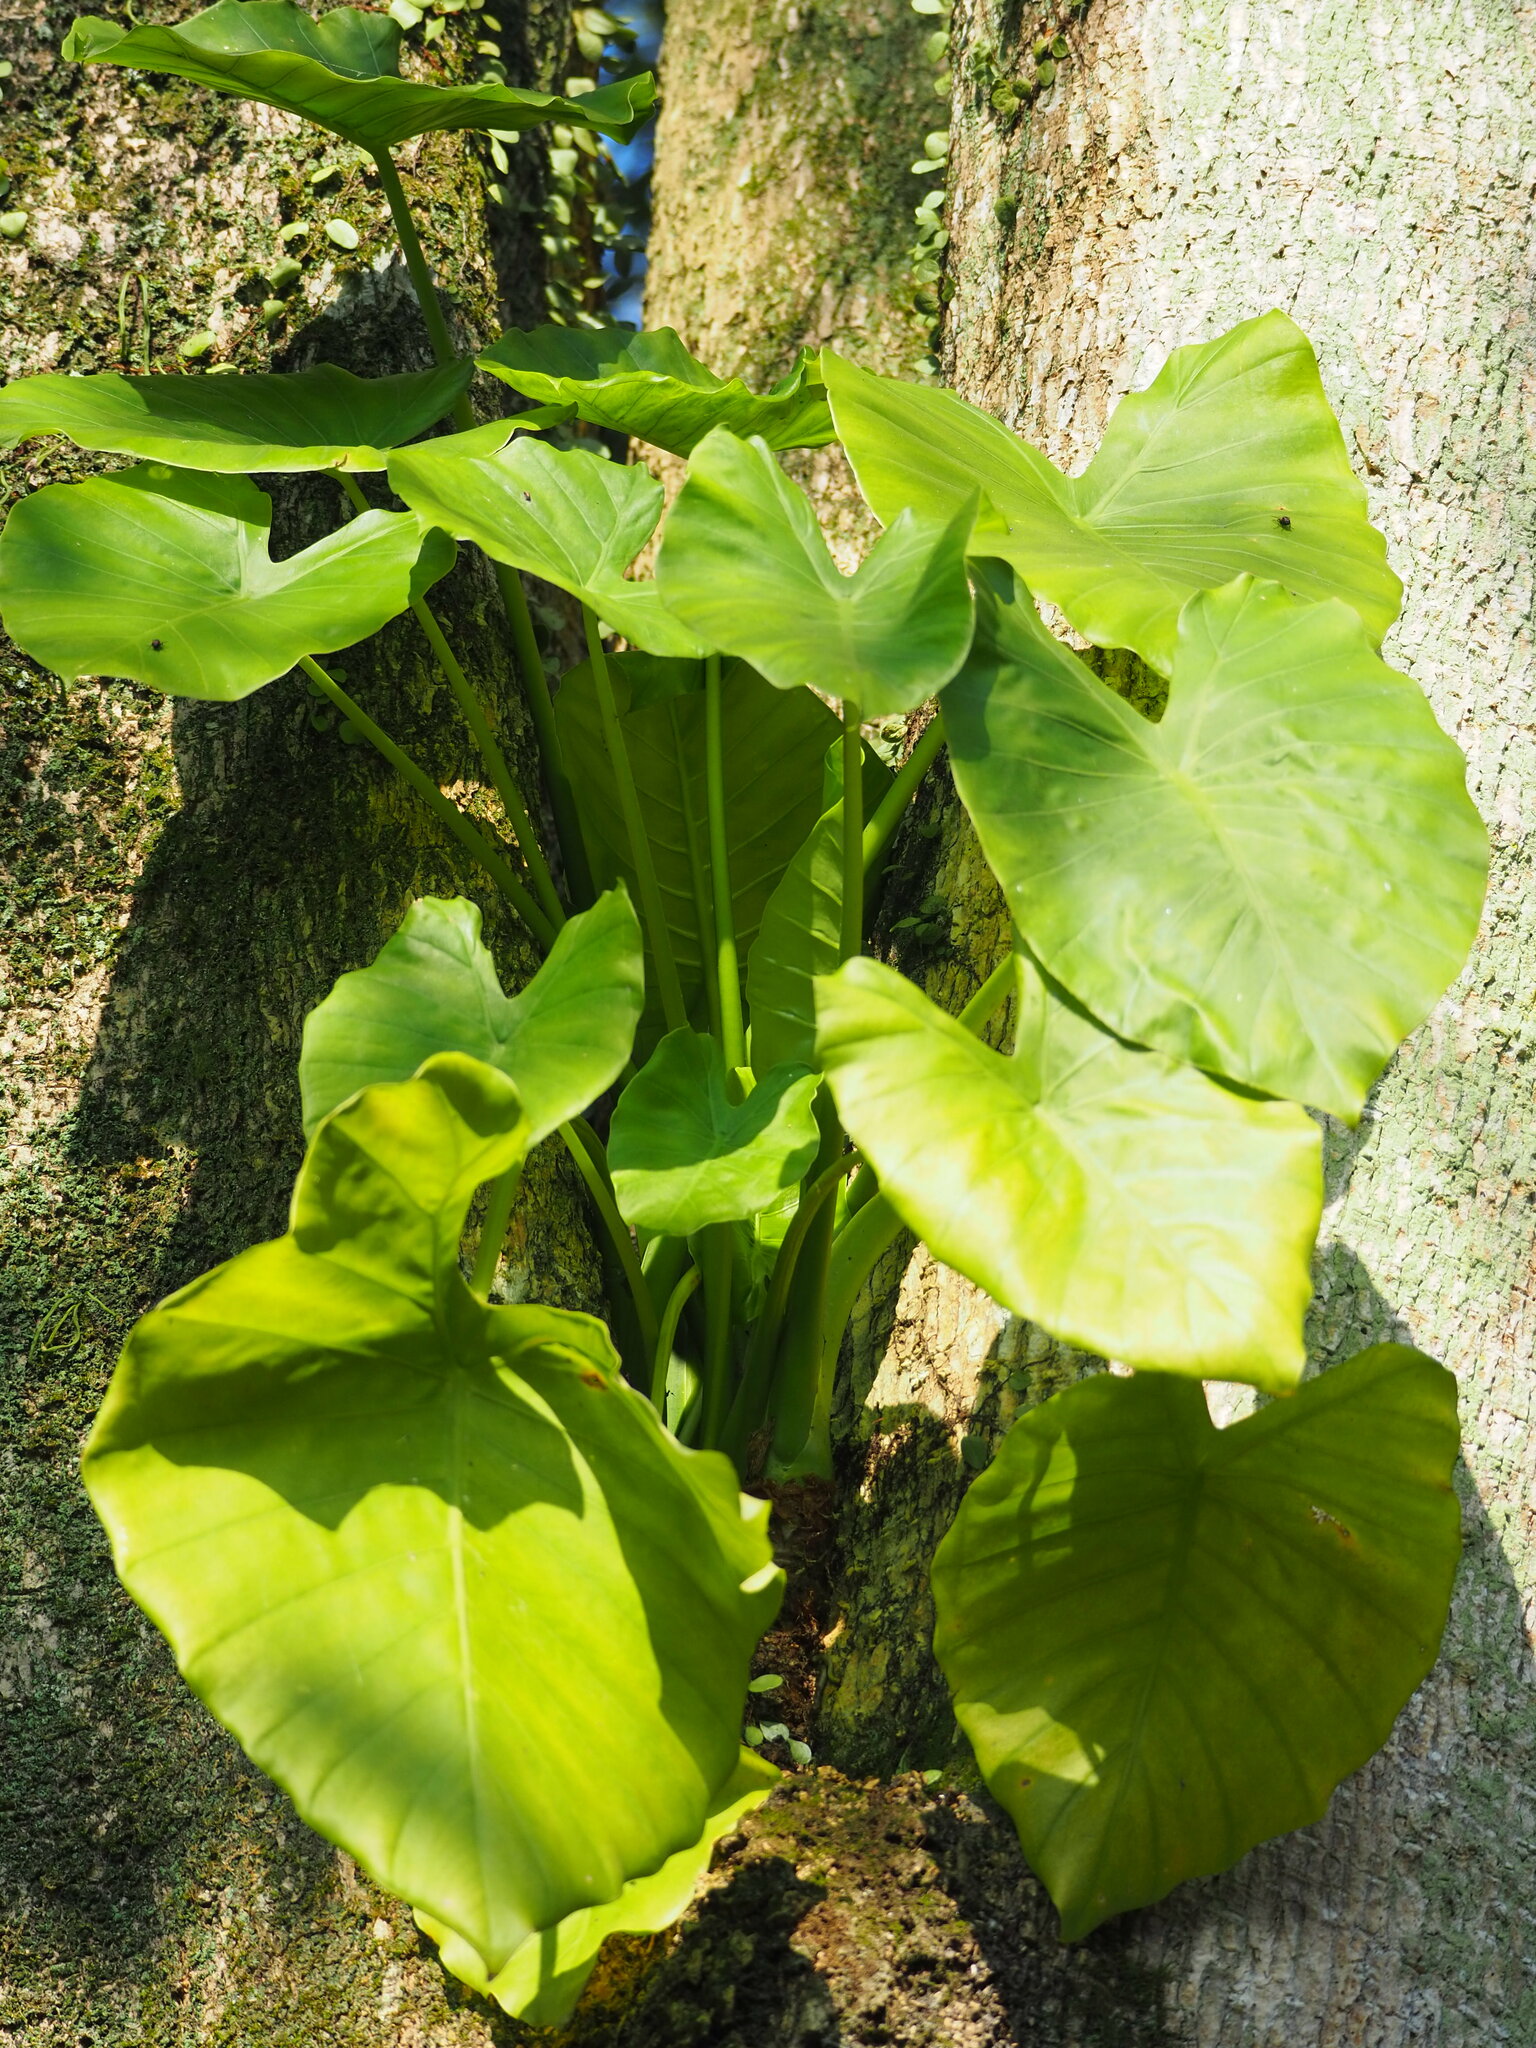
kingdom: Plantae
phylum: Tracheophyta
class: Liliopsida
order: Alismatales
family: Araceae
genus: Alocasia
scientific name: Alocasia odora
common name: Asian taro
